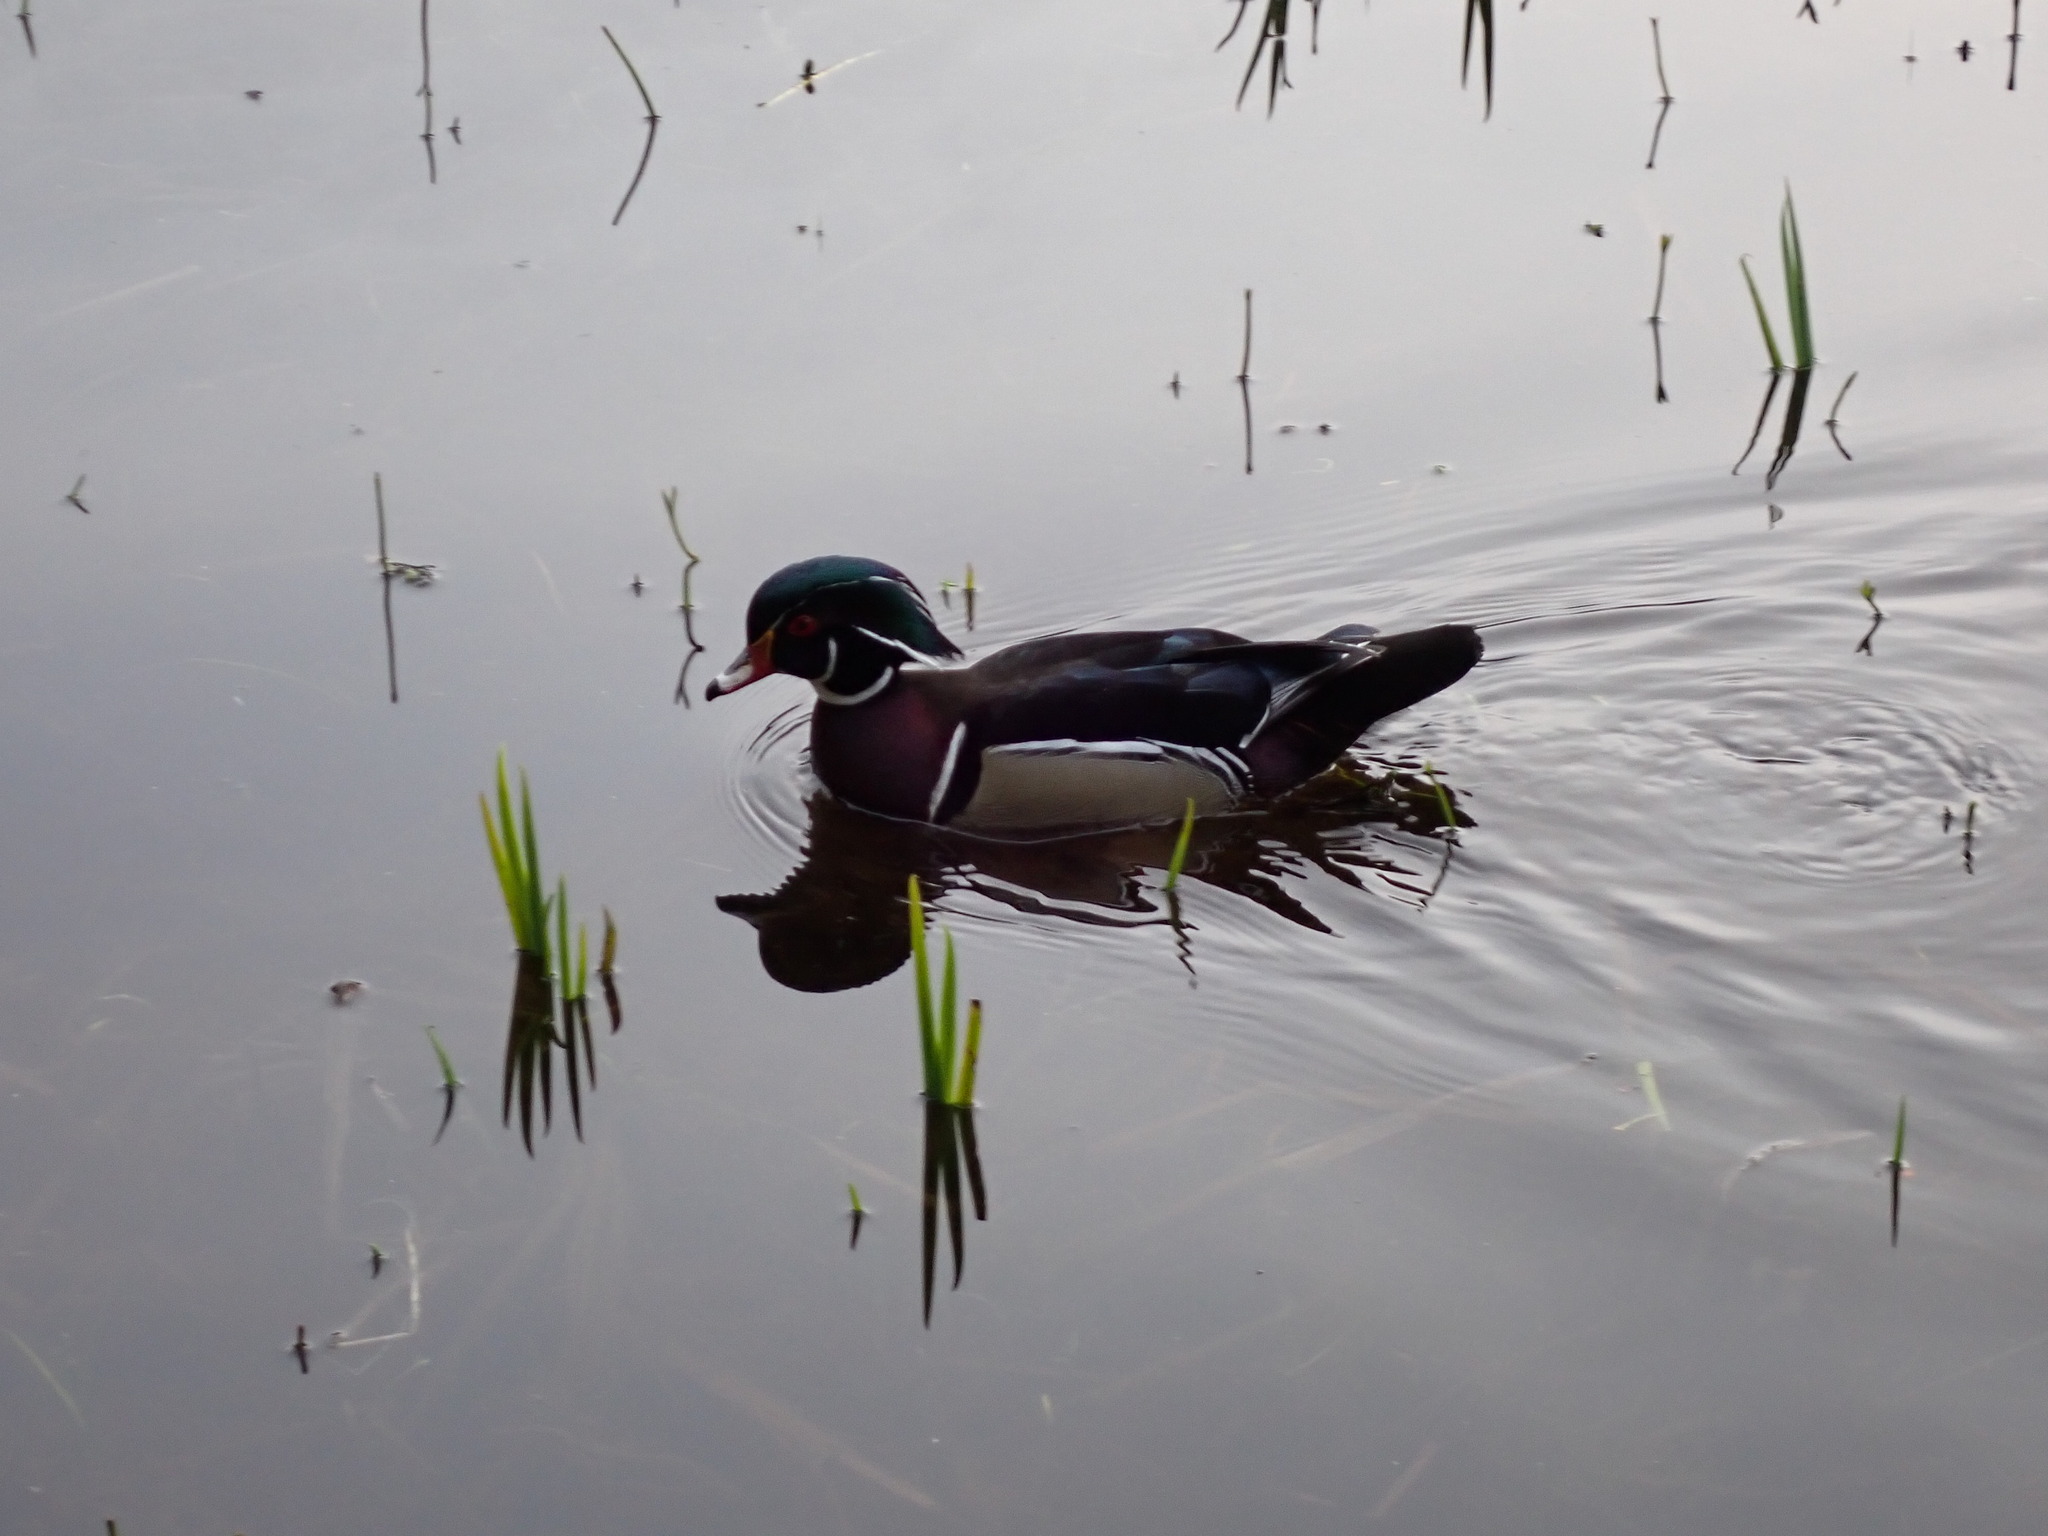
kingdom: Animalia
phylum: Chordata
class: Aves
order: Anseriformes
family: Anatidae
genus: Aix
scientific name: Aix sponsa
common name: Wood duck
